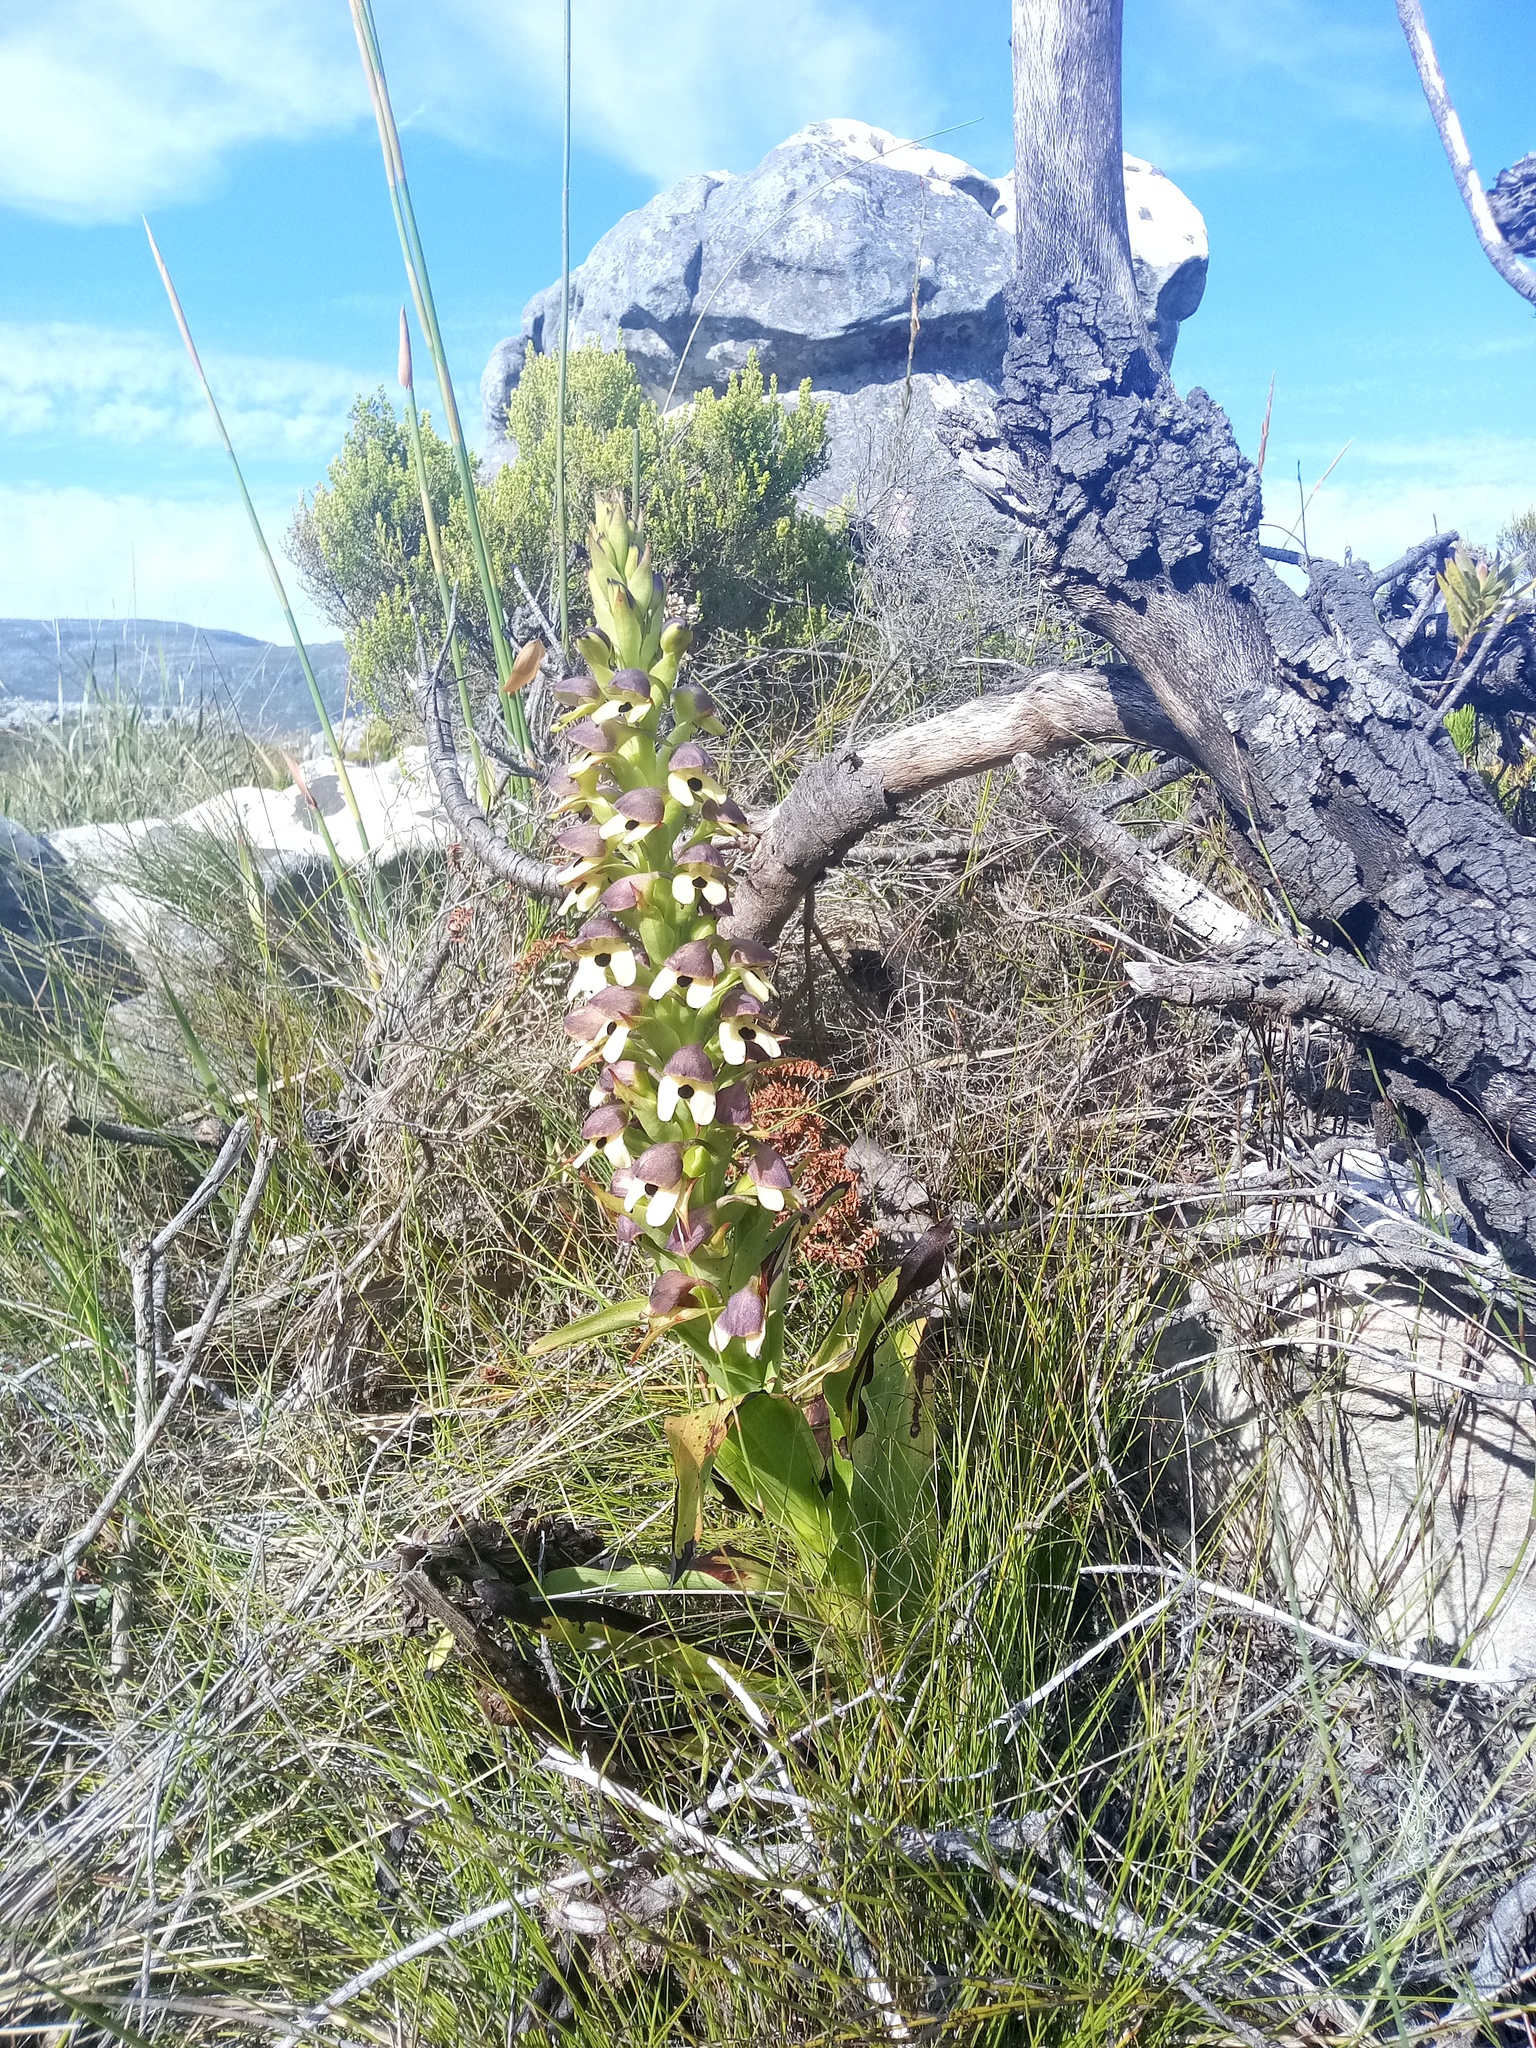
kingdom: Plantae
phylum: Tracheophyta
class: Liliopsida
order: Asparagales
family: Orchidaceae
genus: Disa
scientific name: Disa cornuta
